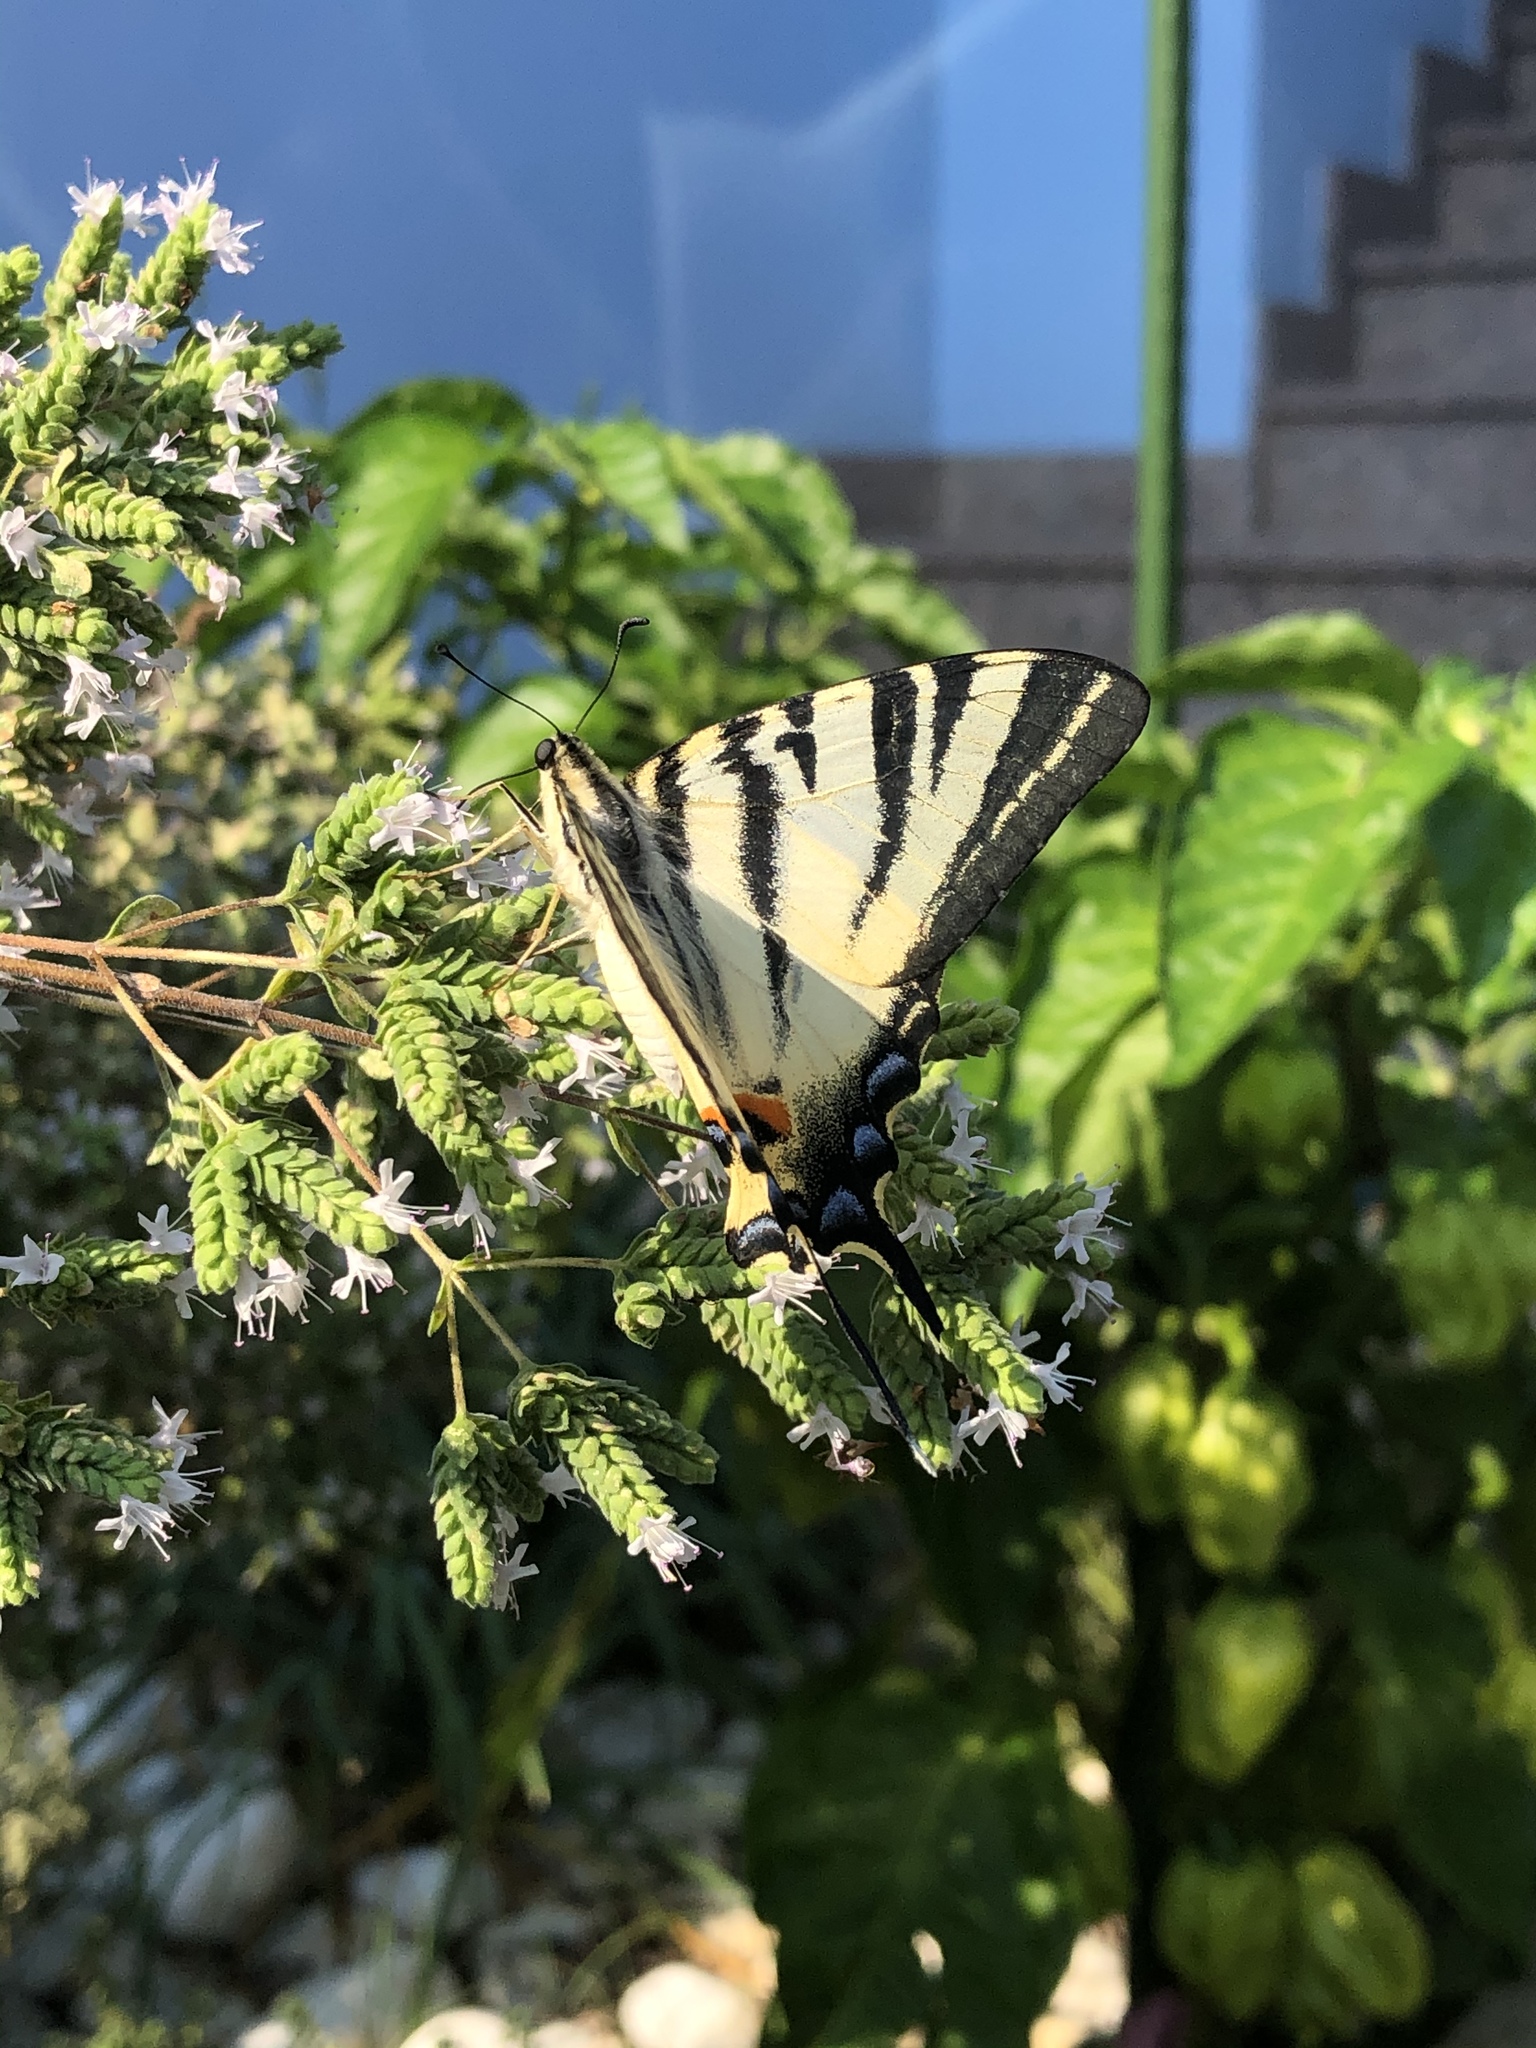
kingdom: Animalia
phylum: Arthropoda
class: Insecta
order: Lepidoptera
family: Papilionidae
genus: Iphiclides
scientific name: Iphiclides podalirius
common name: Scarce swallowtail
